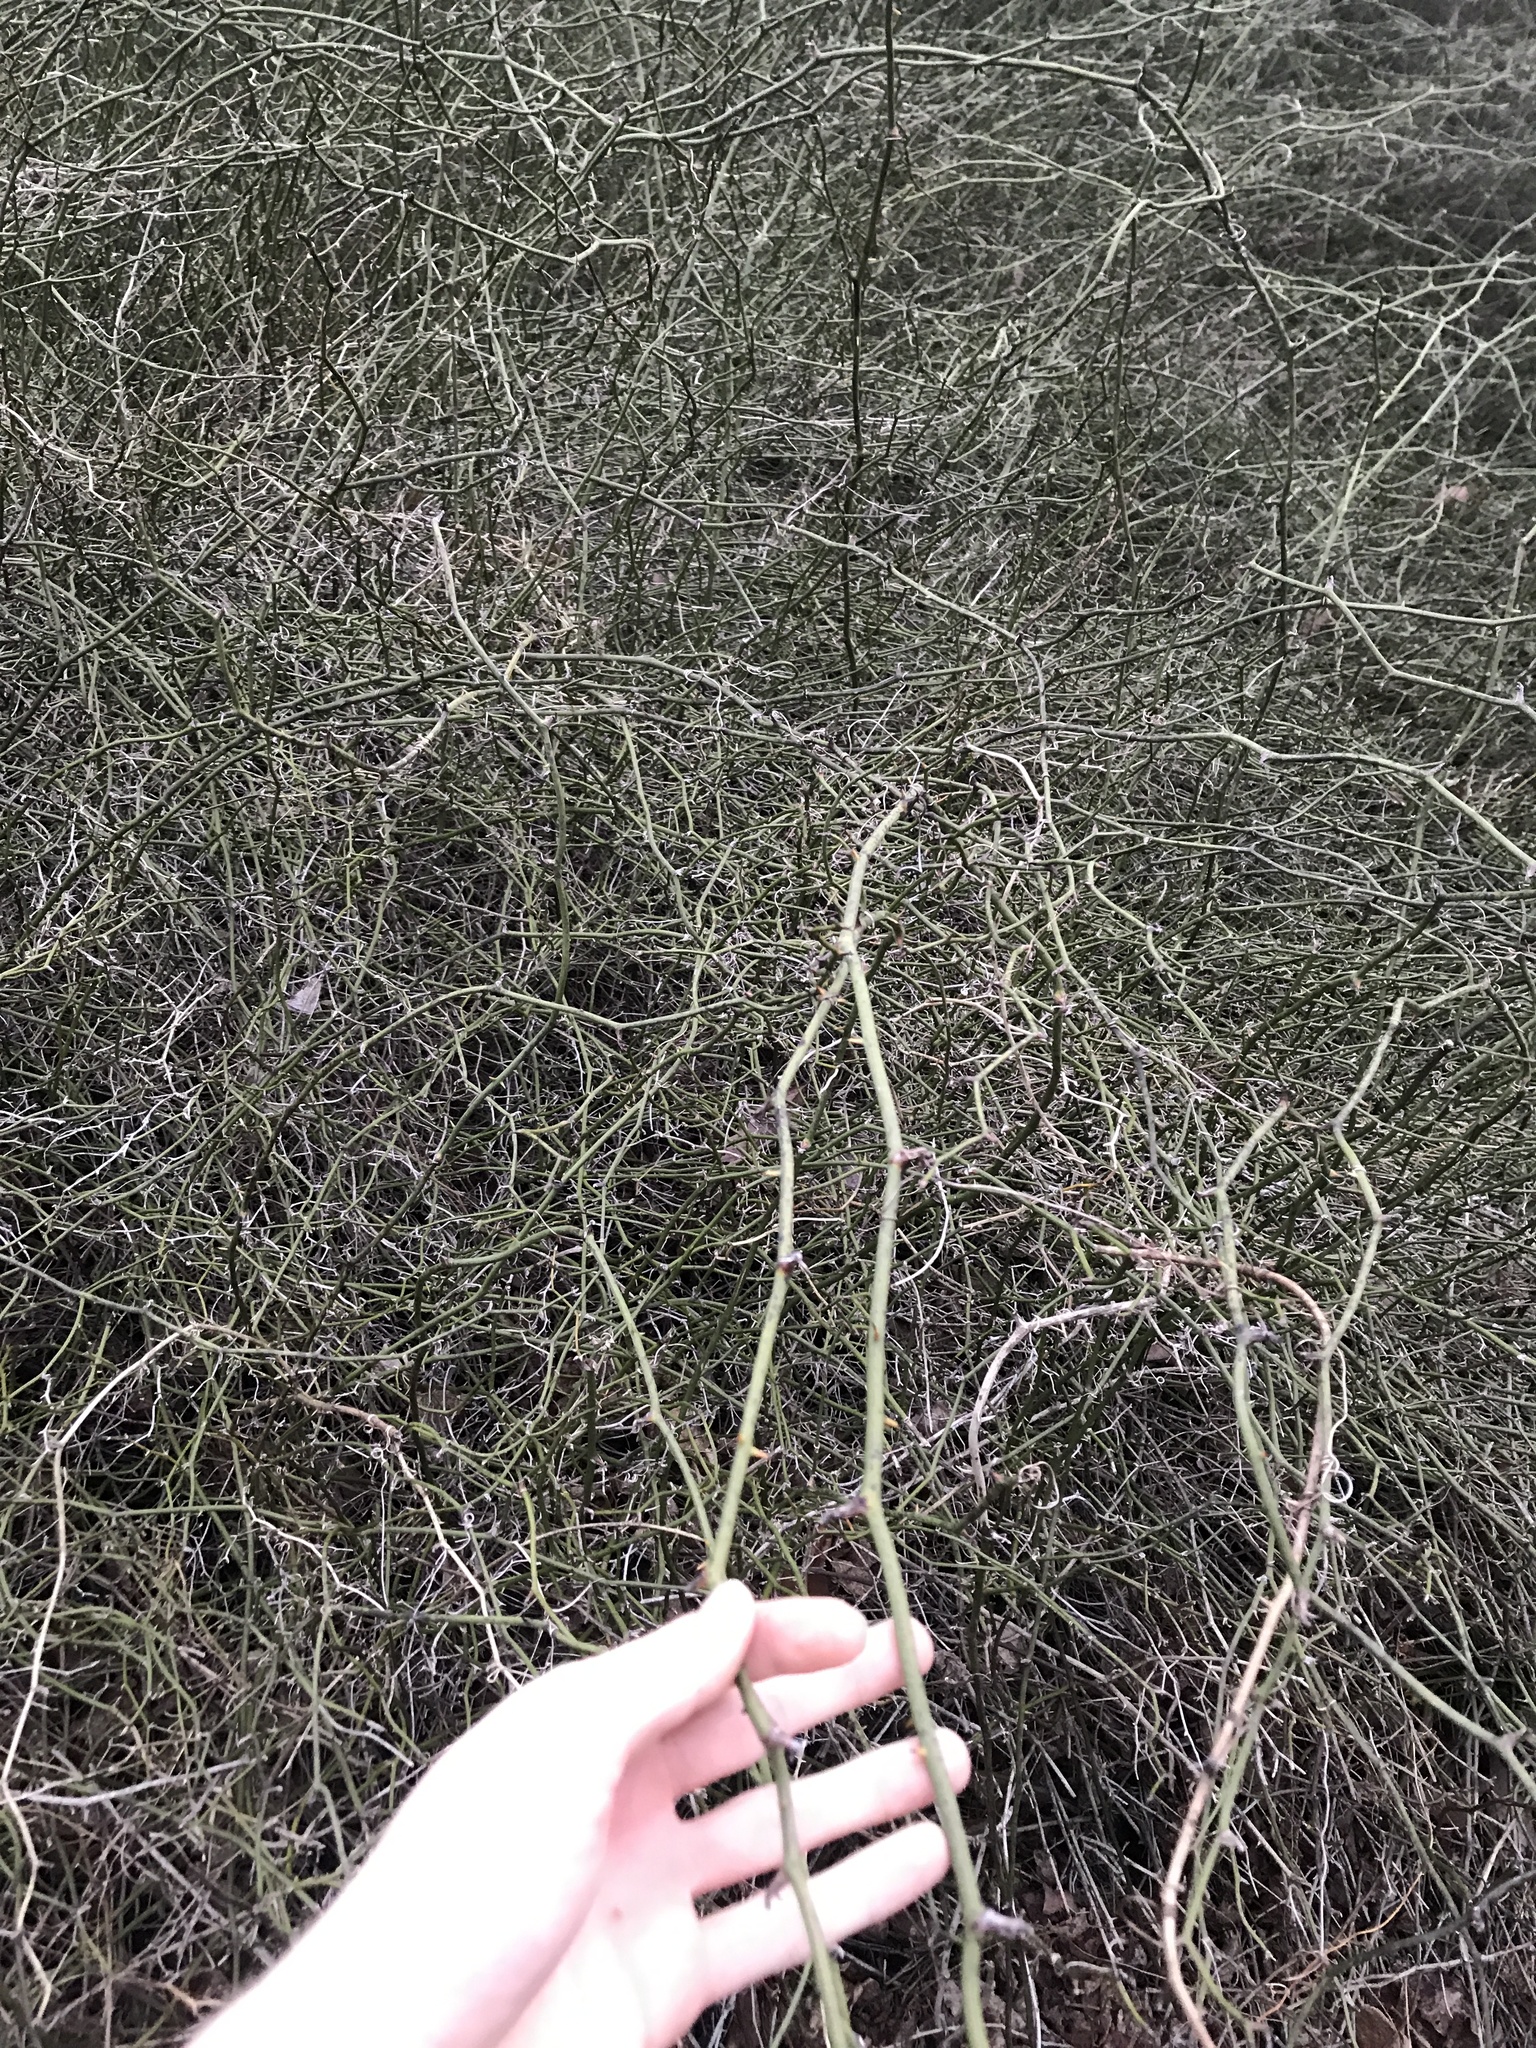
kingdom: Plantae
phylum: Tracheophyta
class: Liliopsida
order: Liliales
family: Smilacaceae
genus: Smilax
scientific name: Smilax rotundifolia
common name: Bullbriar
